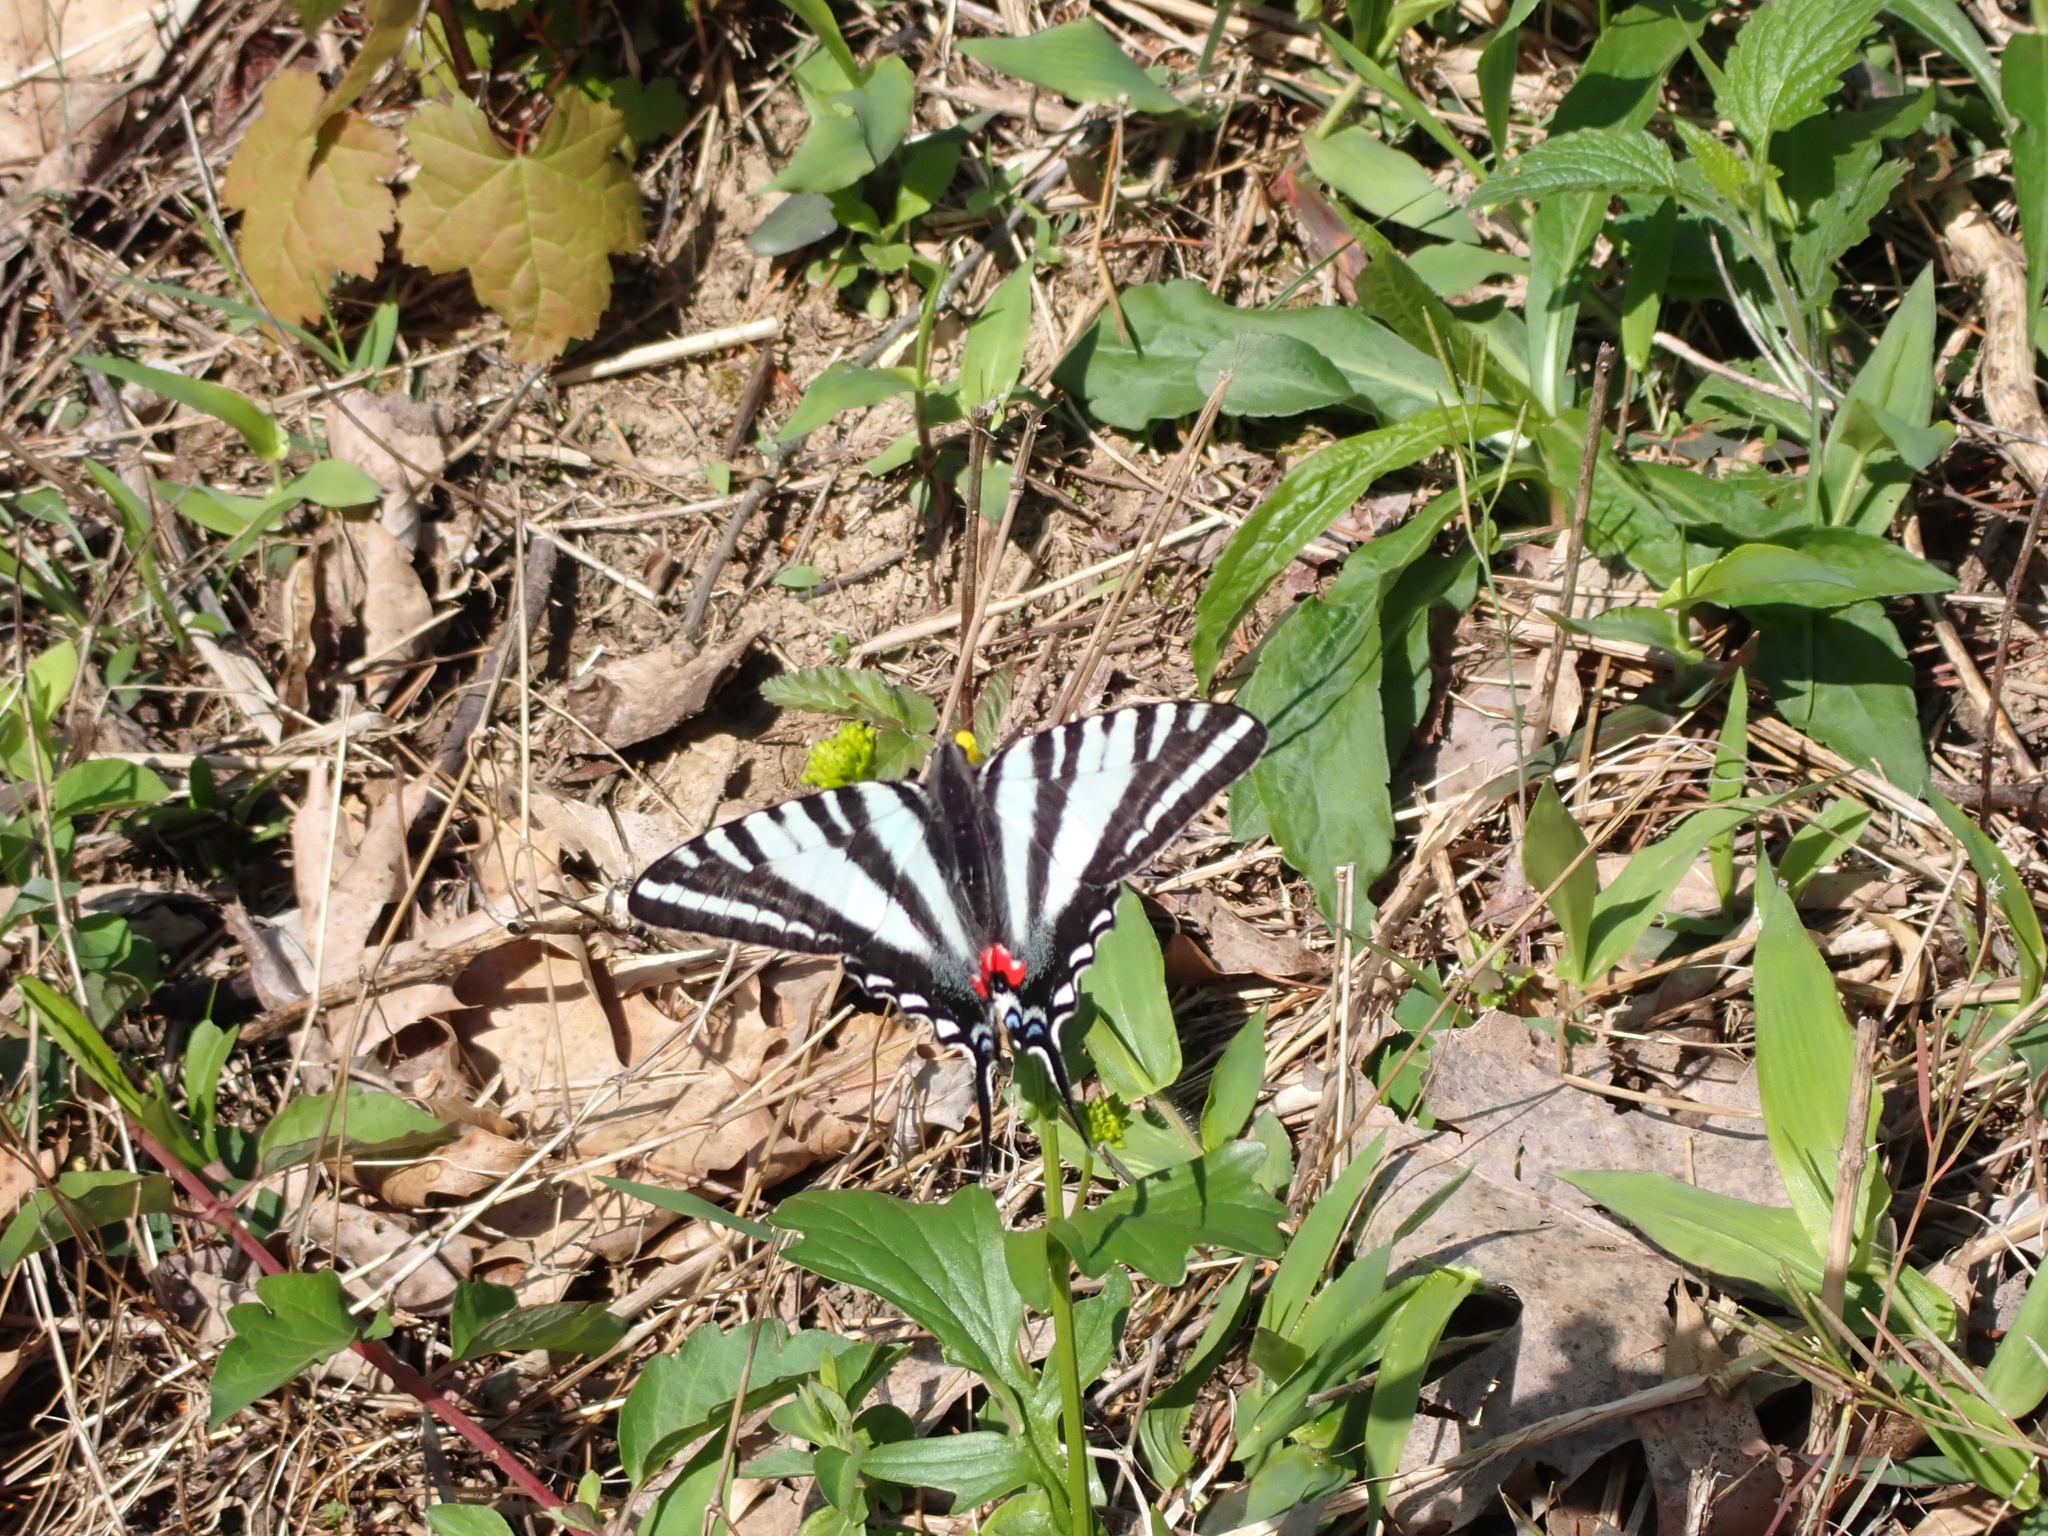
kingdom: Animalia
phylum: Arthropoda
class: Insecta
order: Lepidoptera
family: Papilionidae
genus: Protographium
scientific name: Protographium marcellus
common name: Zebra swallowtail
